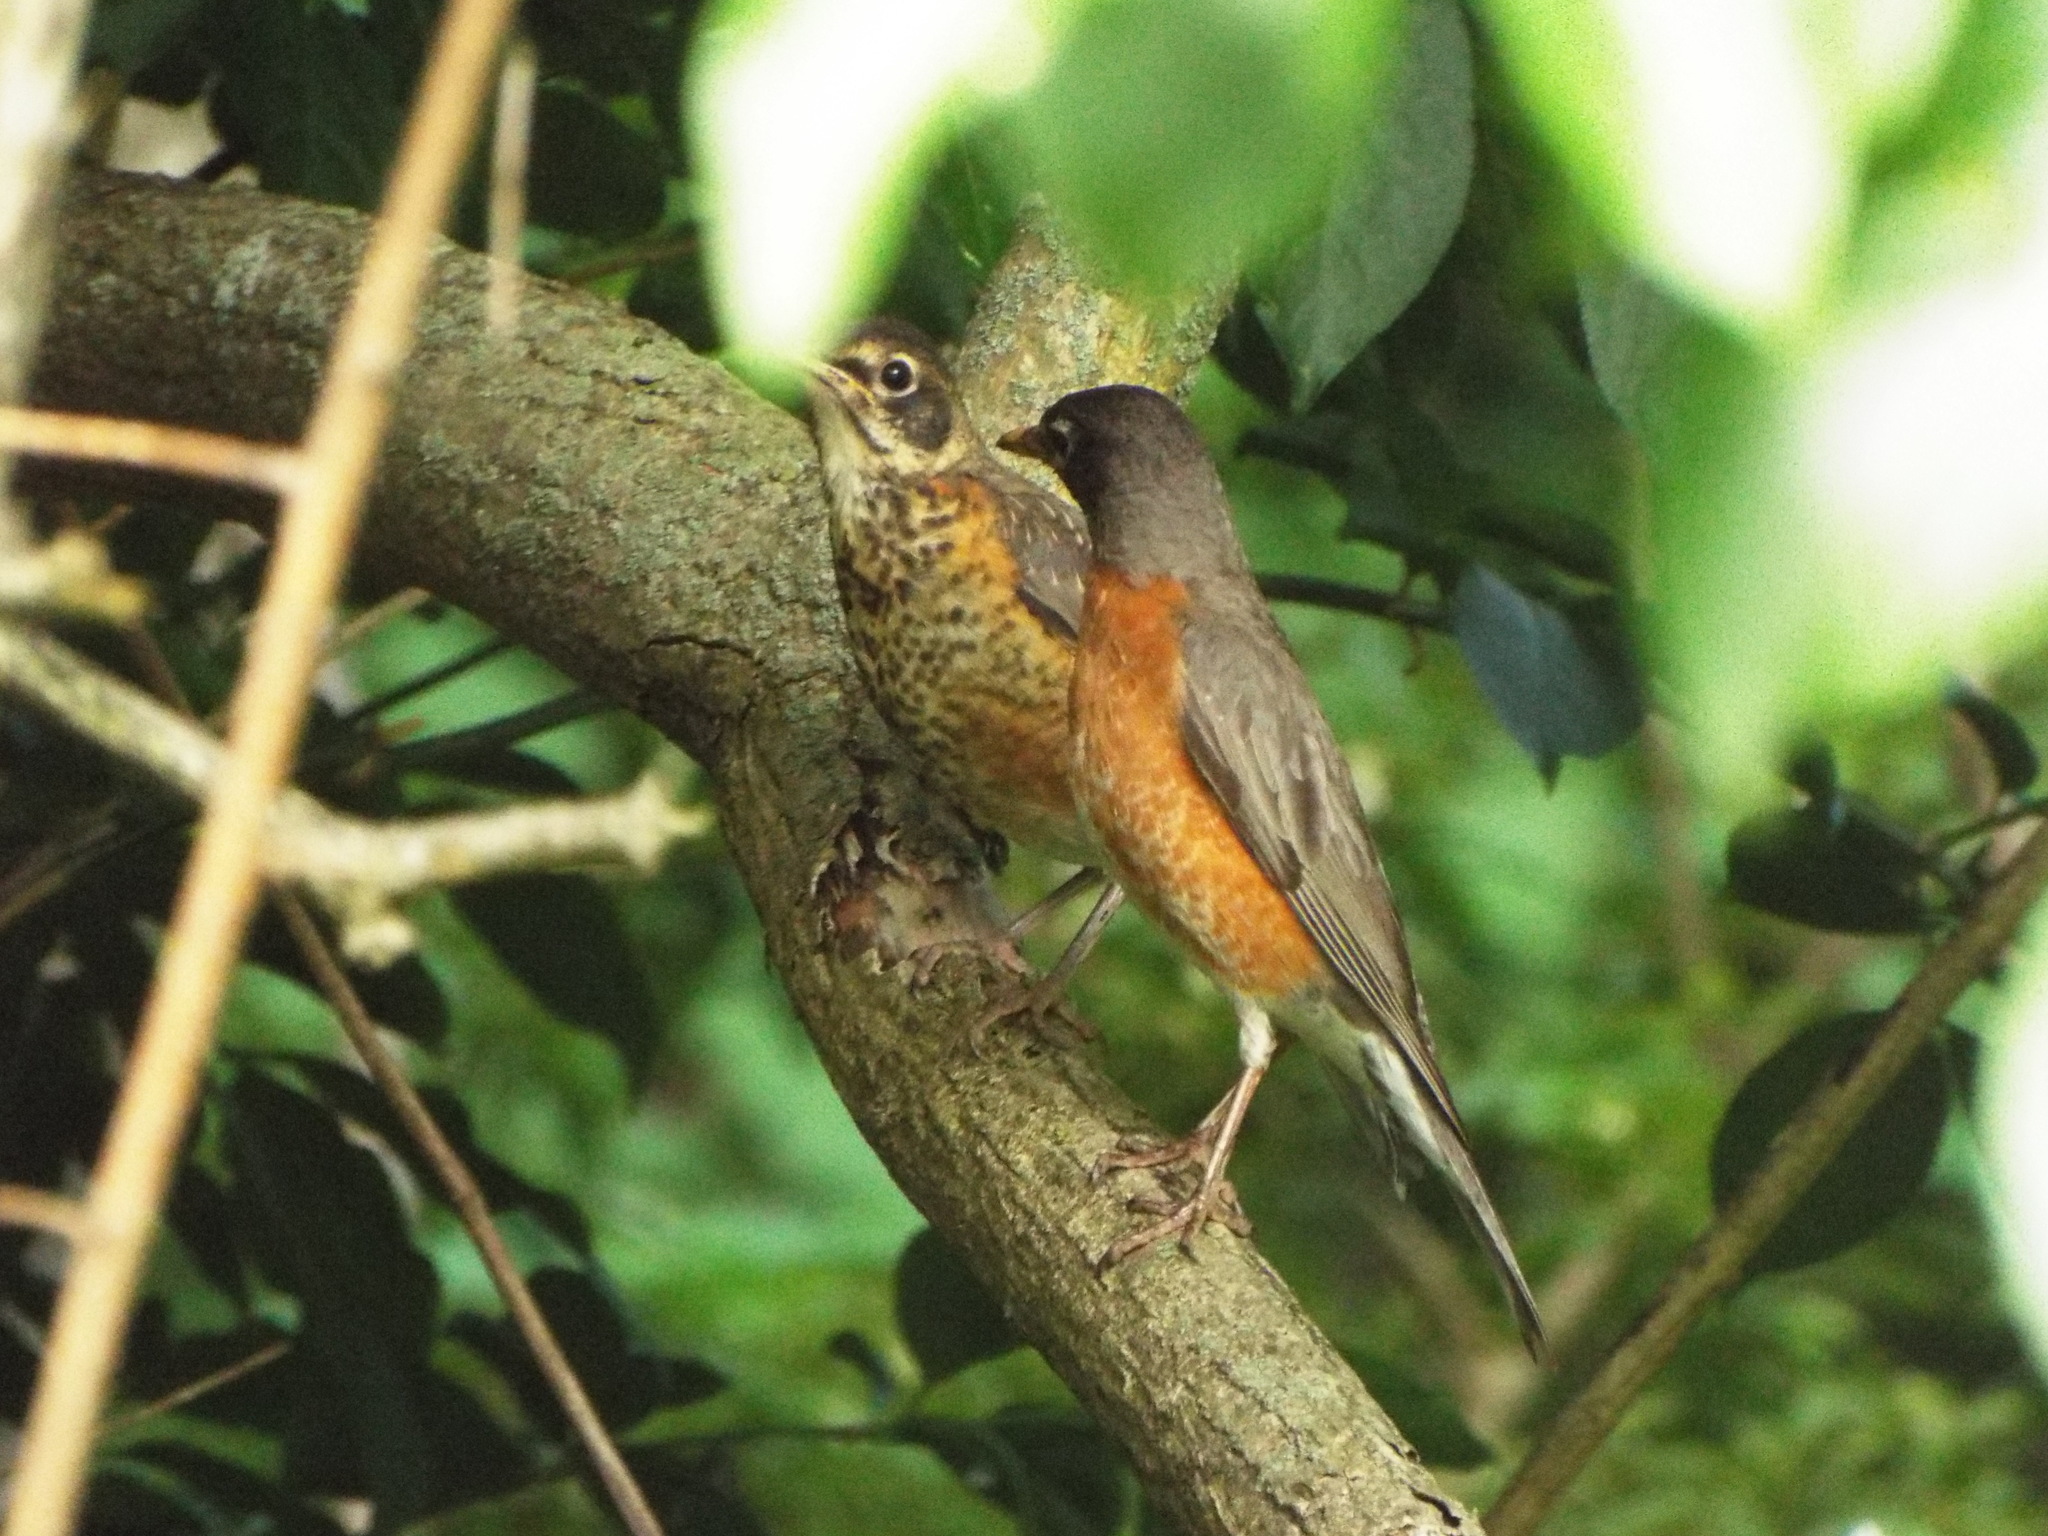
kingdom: Animalia
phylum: Chordata
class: Aves
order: Passeriformes
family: Turdidae
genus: Turdus
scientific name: Turdus migratorius
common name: American robin
